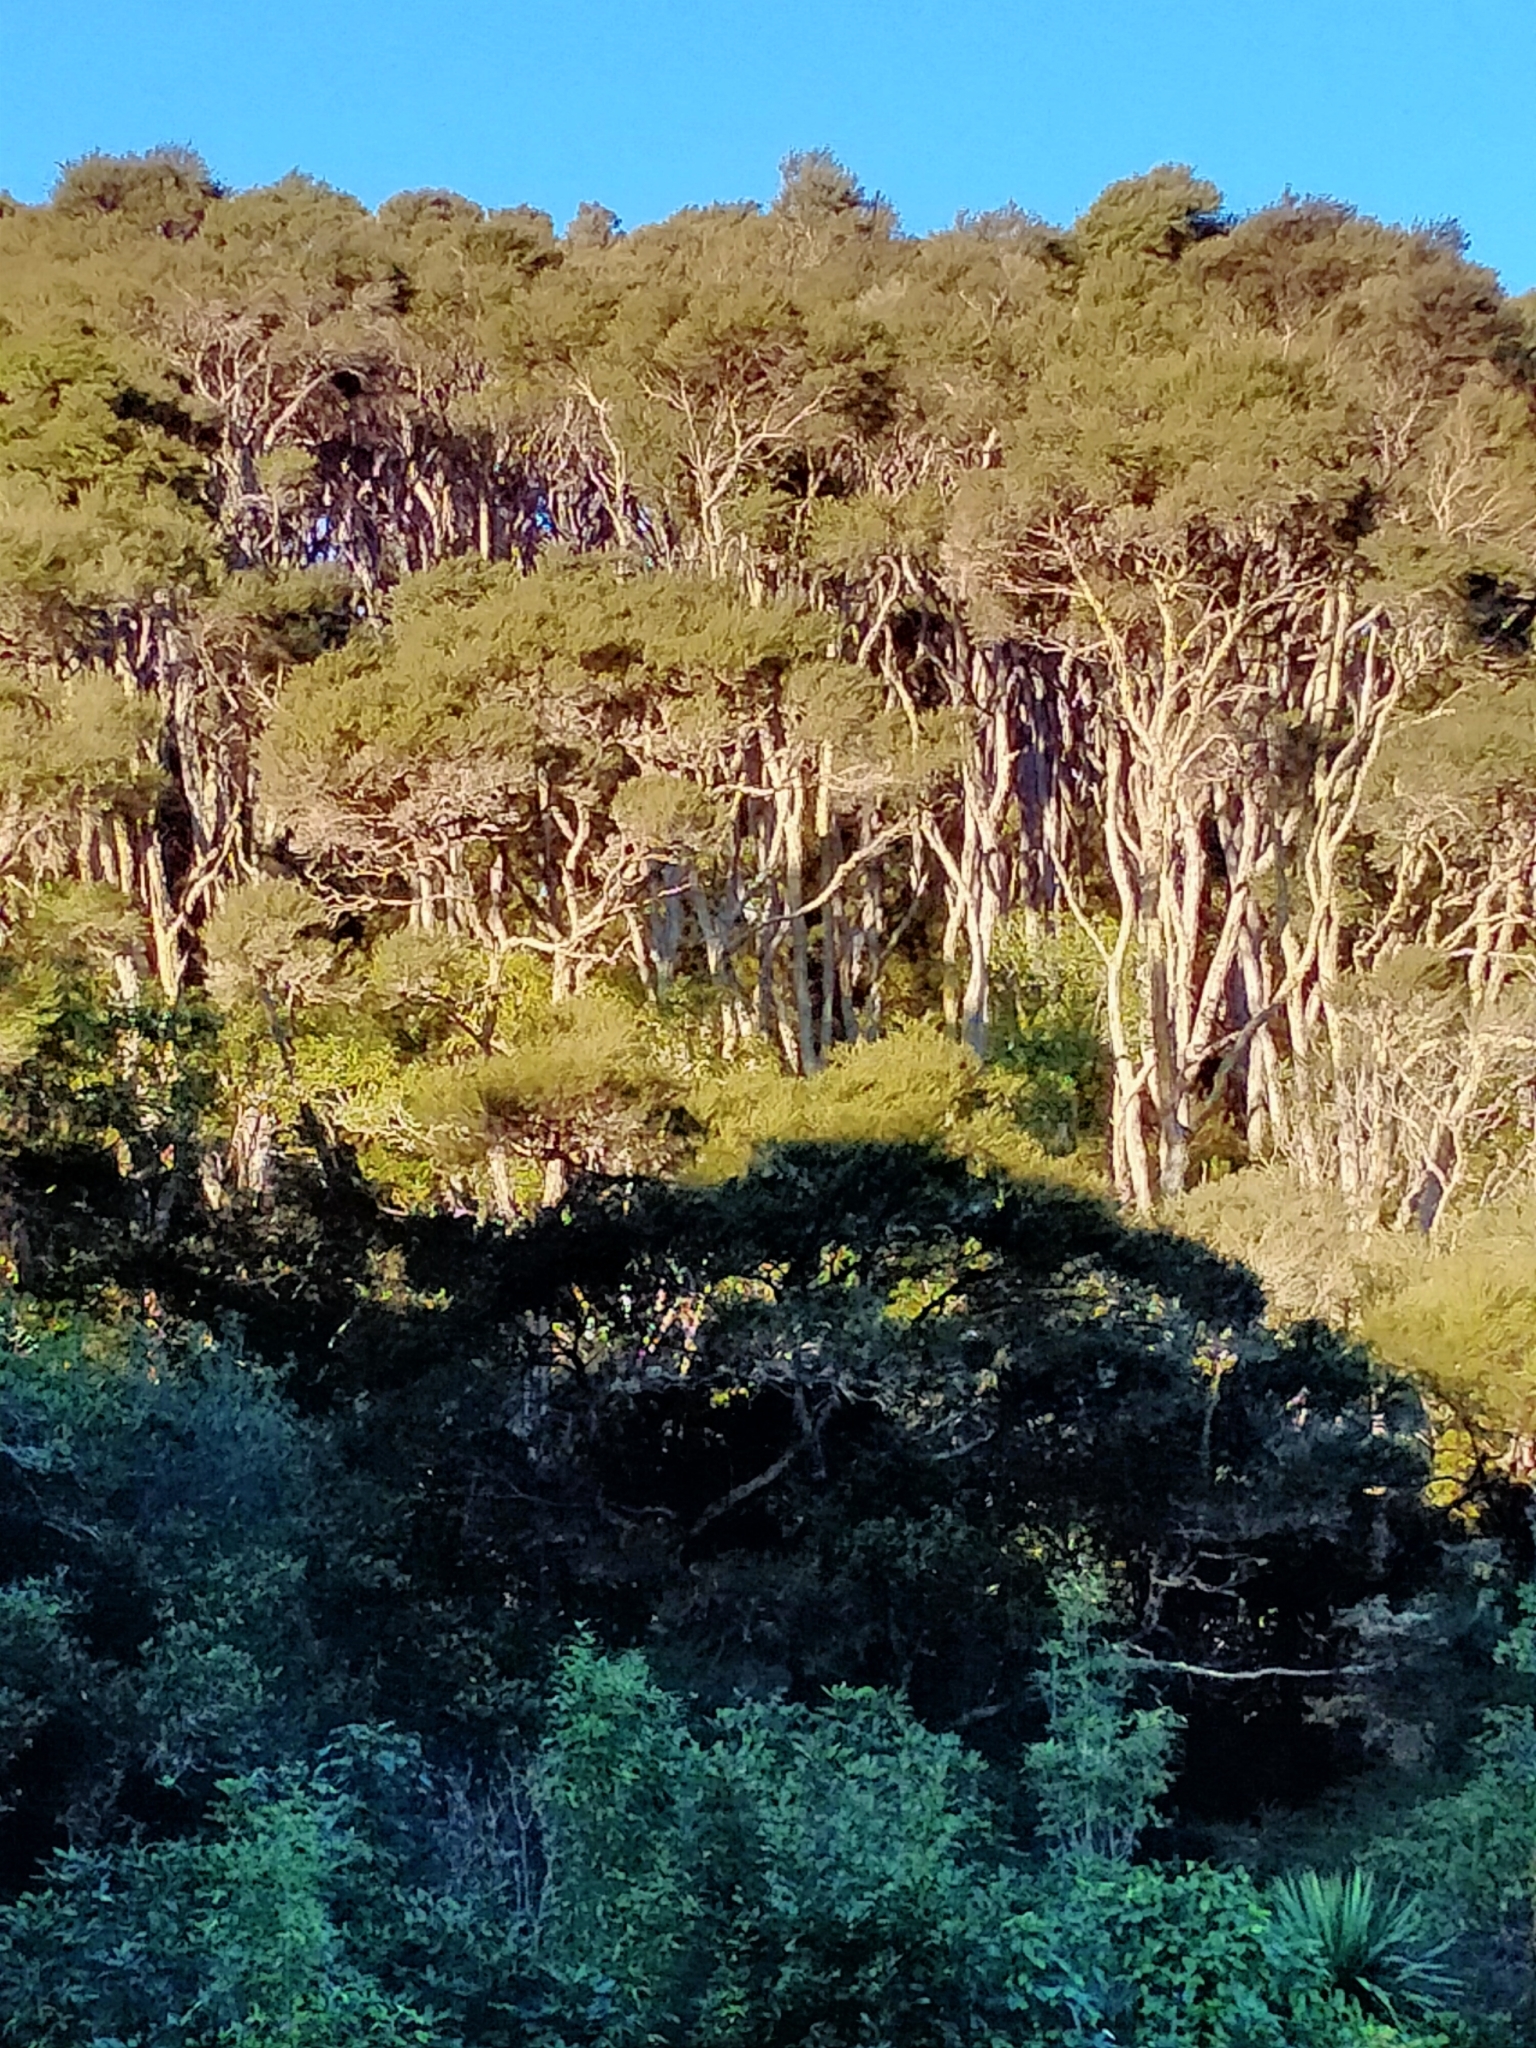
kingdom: Plantae
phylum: Tracheophyta
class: Magnoliopsida
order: Myrtales
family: Myrtaceae
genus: Kunzea
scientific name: Kunzea robusta
